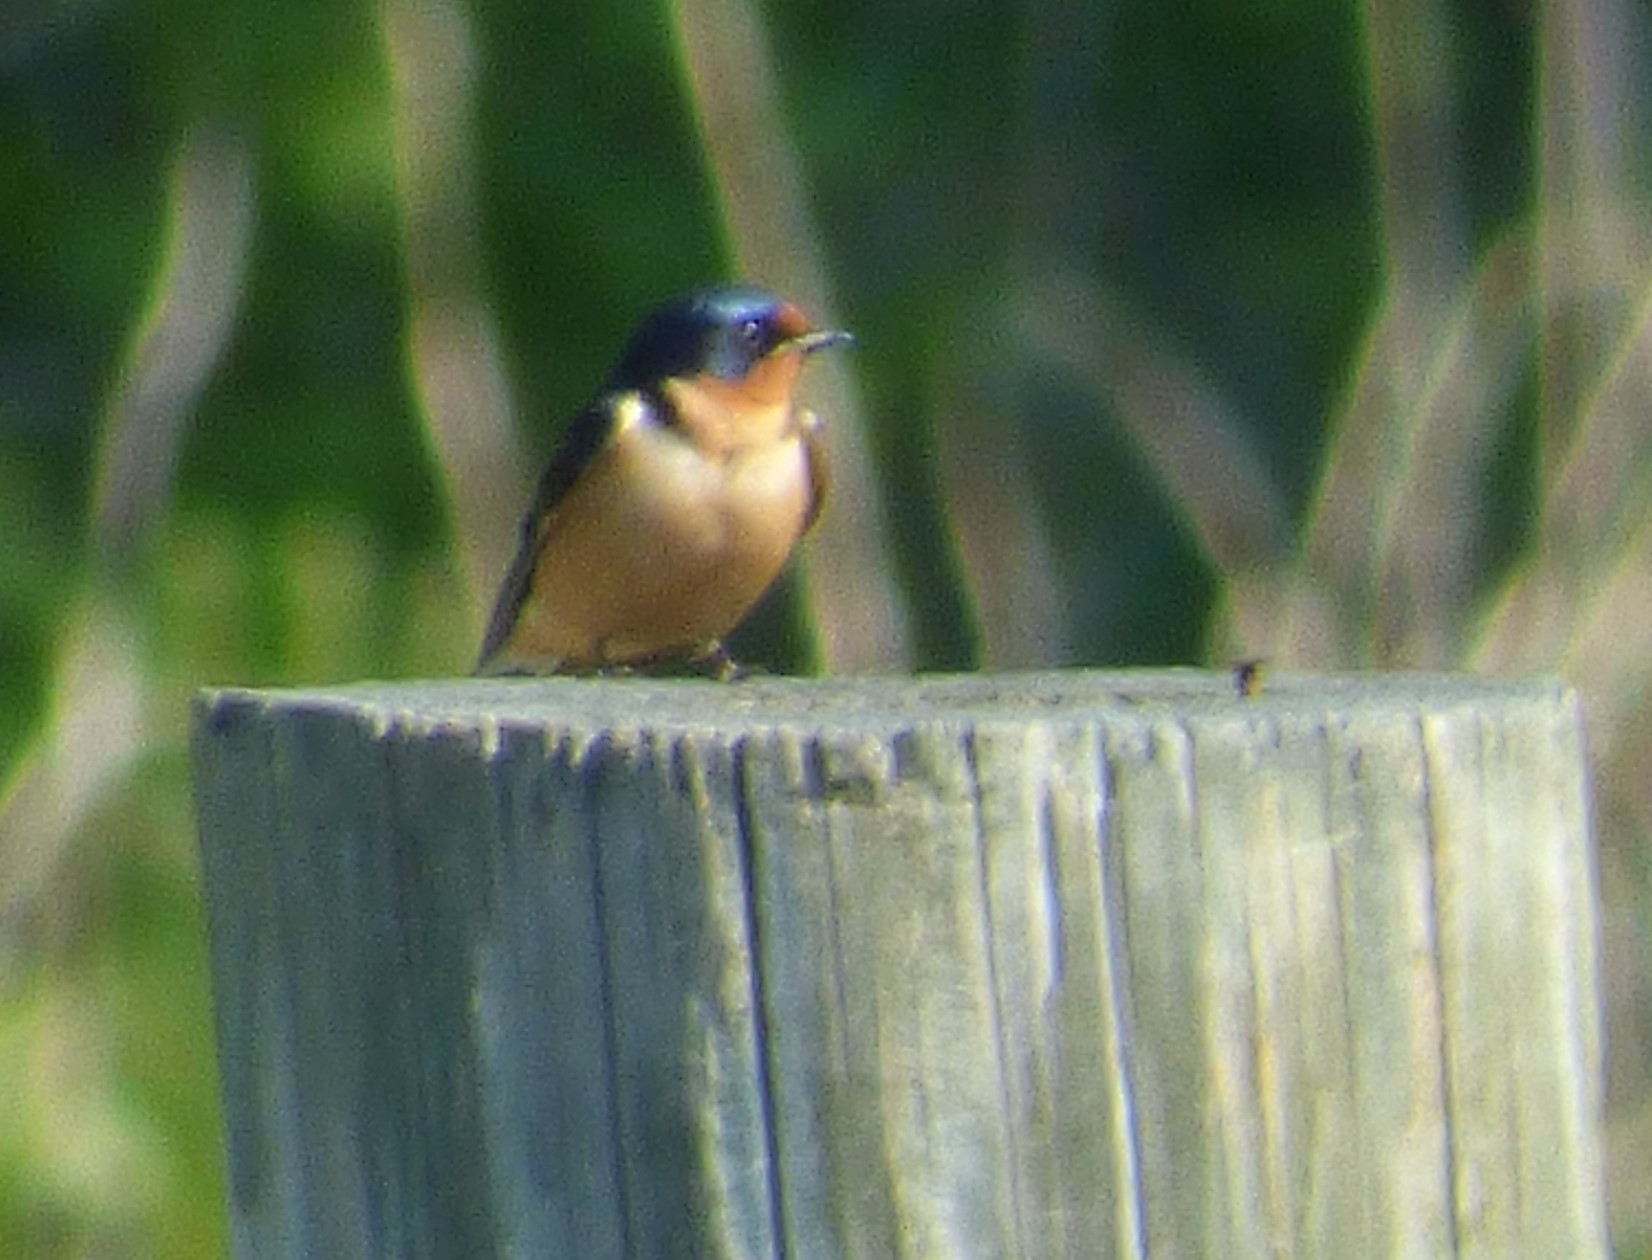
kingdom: Animalia
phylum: Chordata
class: Aves
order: Passeriformes
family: Hirundinidae
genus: Hirundo
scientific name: Hirundo rustica
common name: Barn swallow
